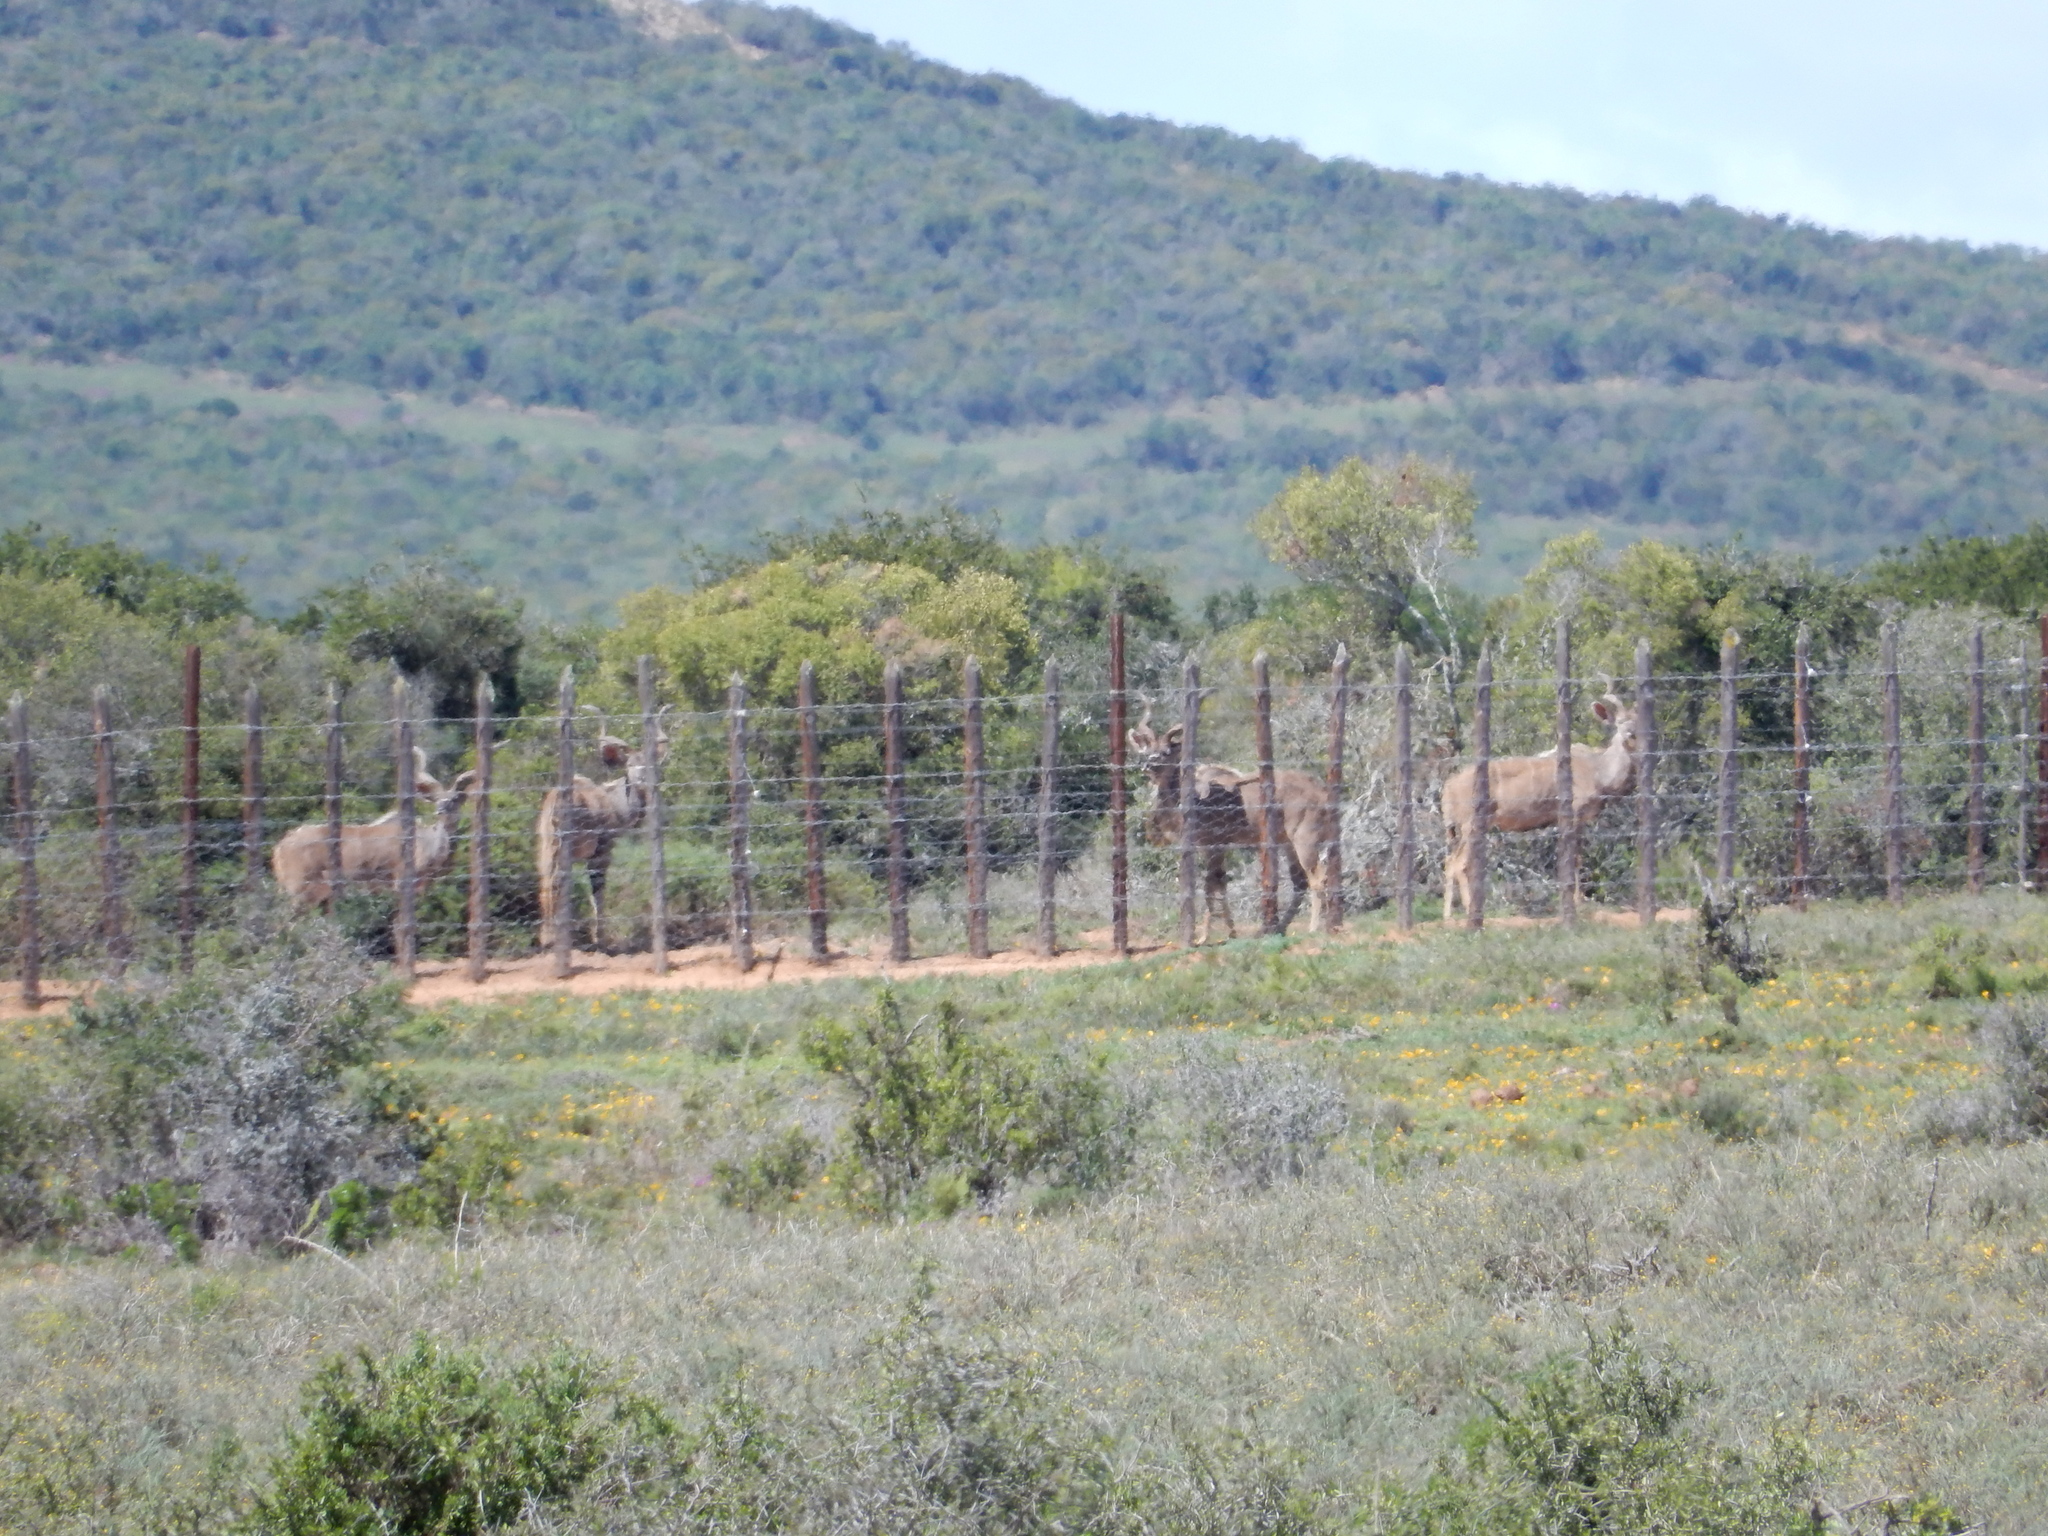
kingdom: Animalia
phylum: Chordata
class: Mammalia
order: Artiodactyla
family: Bovidae
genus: Tragelaphus
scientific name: Tragelaphus strepsiceros
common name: Greater kudu
